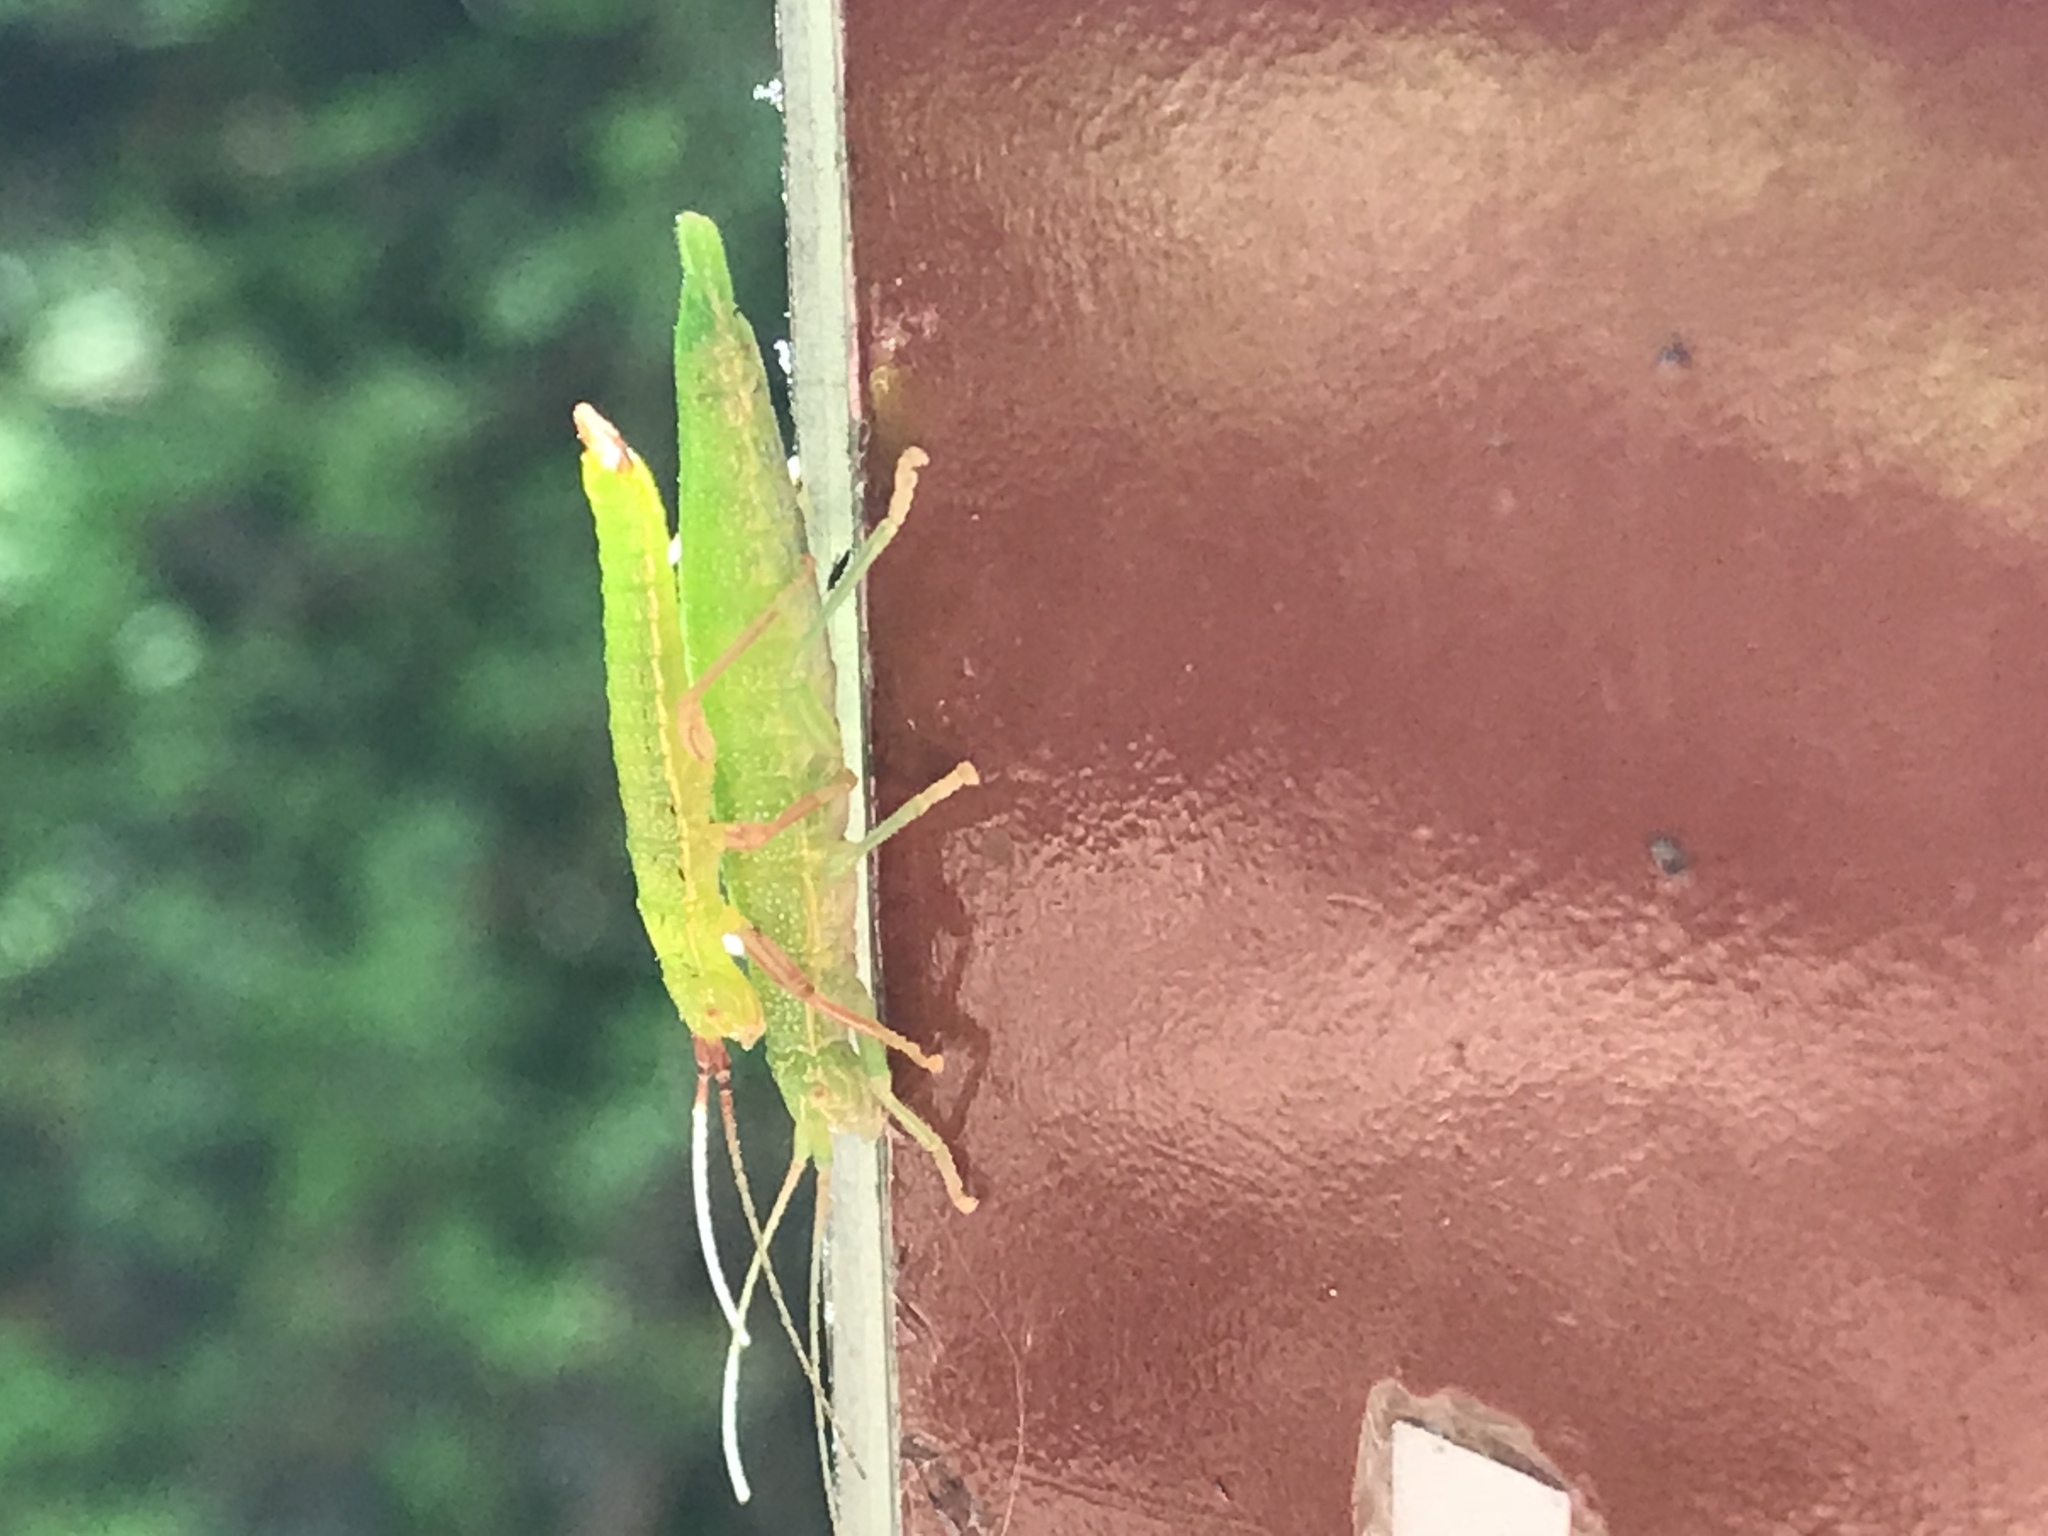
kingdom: Animalia
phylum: Arthropoda
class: Insecta
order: Phasmida
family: Timematidae
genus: Timema
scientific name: Timema californicum
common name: California timema
